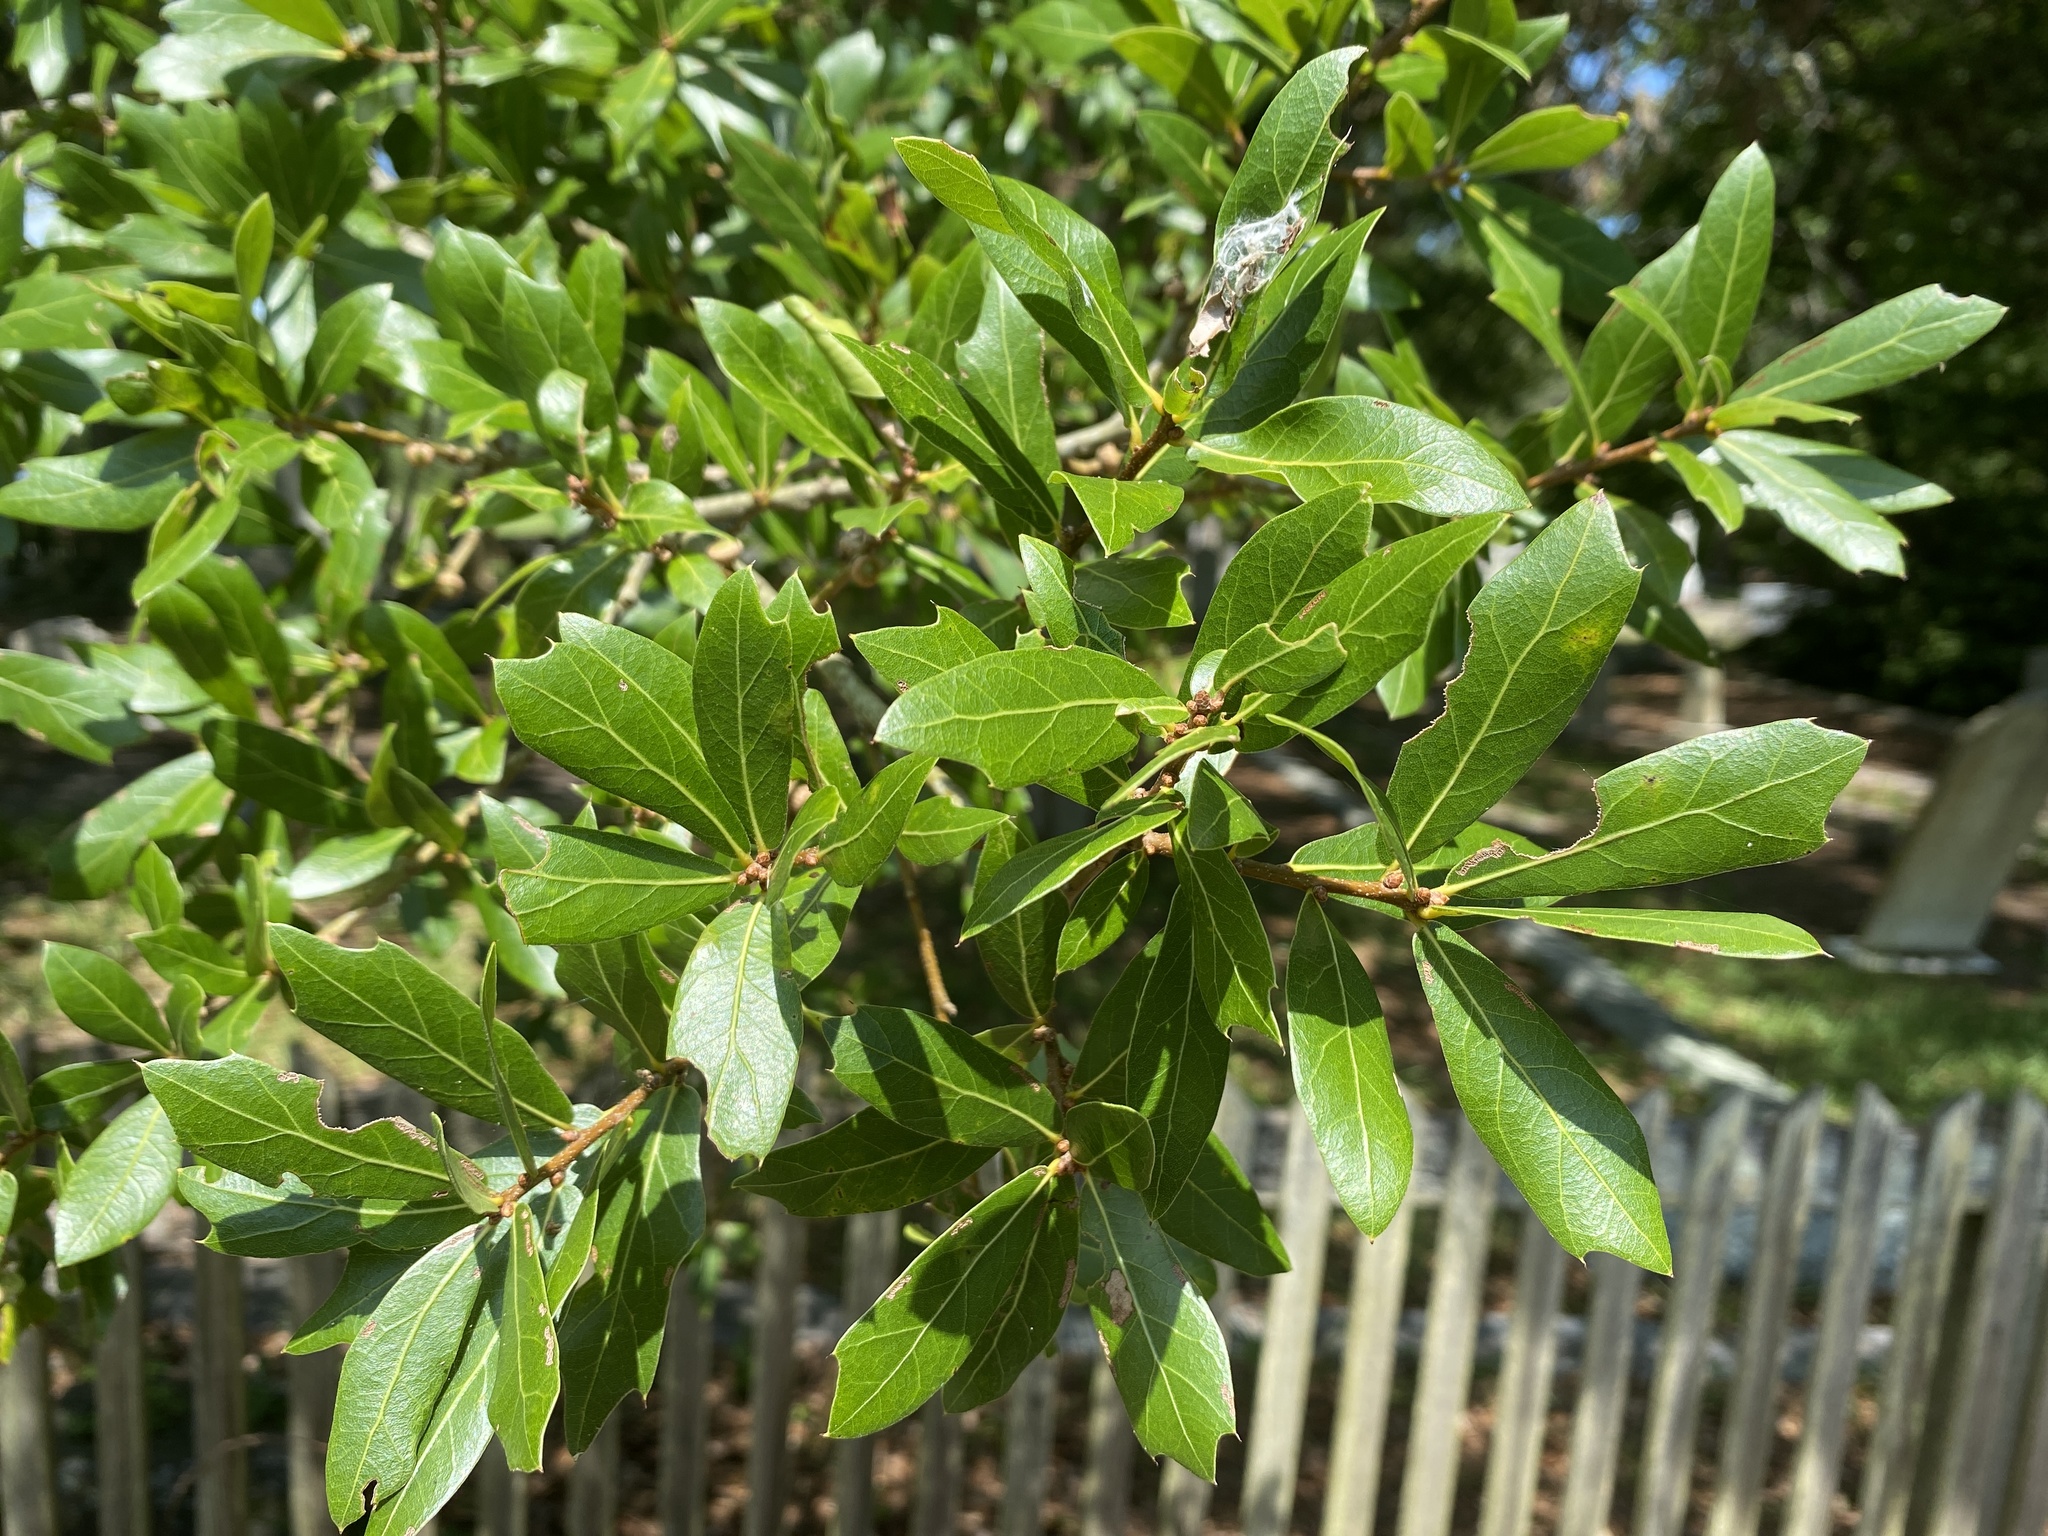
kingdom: Plantae
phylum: Tracheophyta
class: Magnoliopsida
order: Fagales
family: Fagaceae
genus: Quercus
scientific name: Quercus hemisphaerica
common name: Darlington oak
